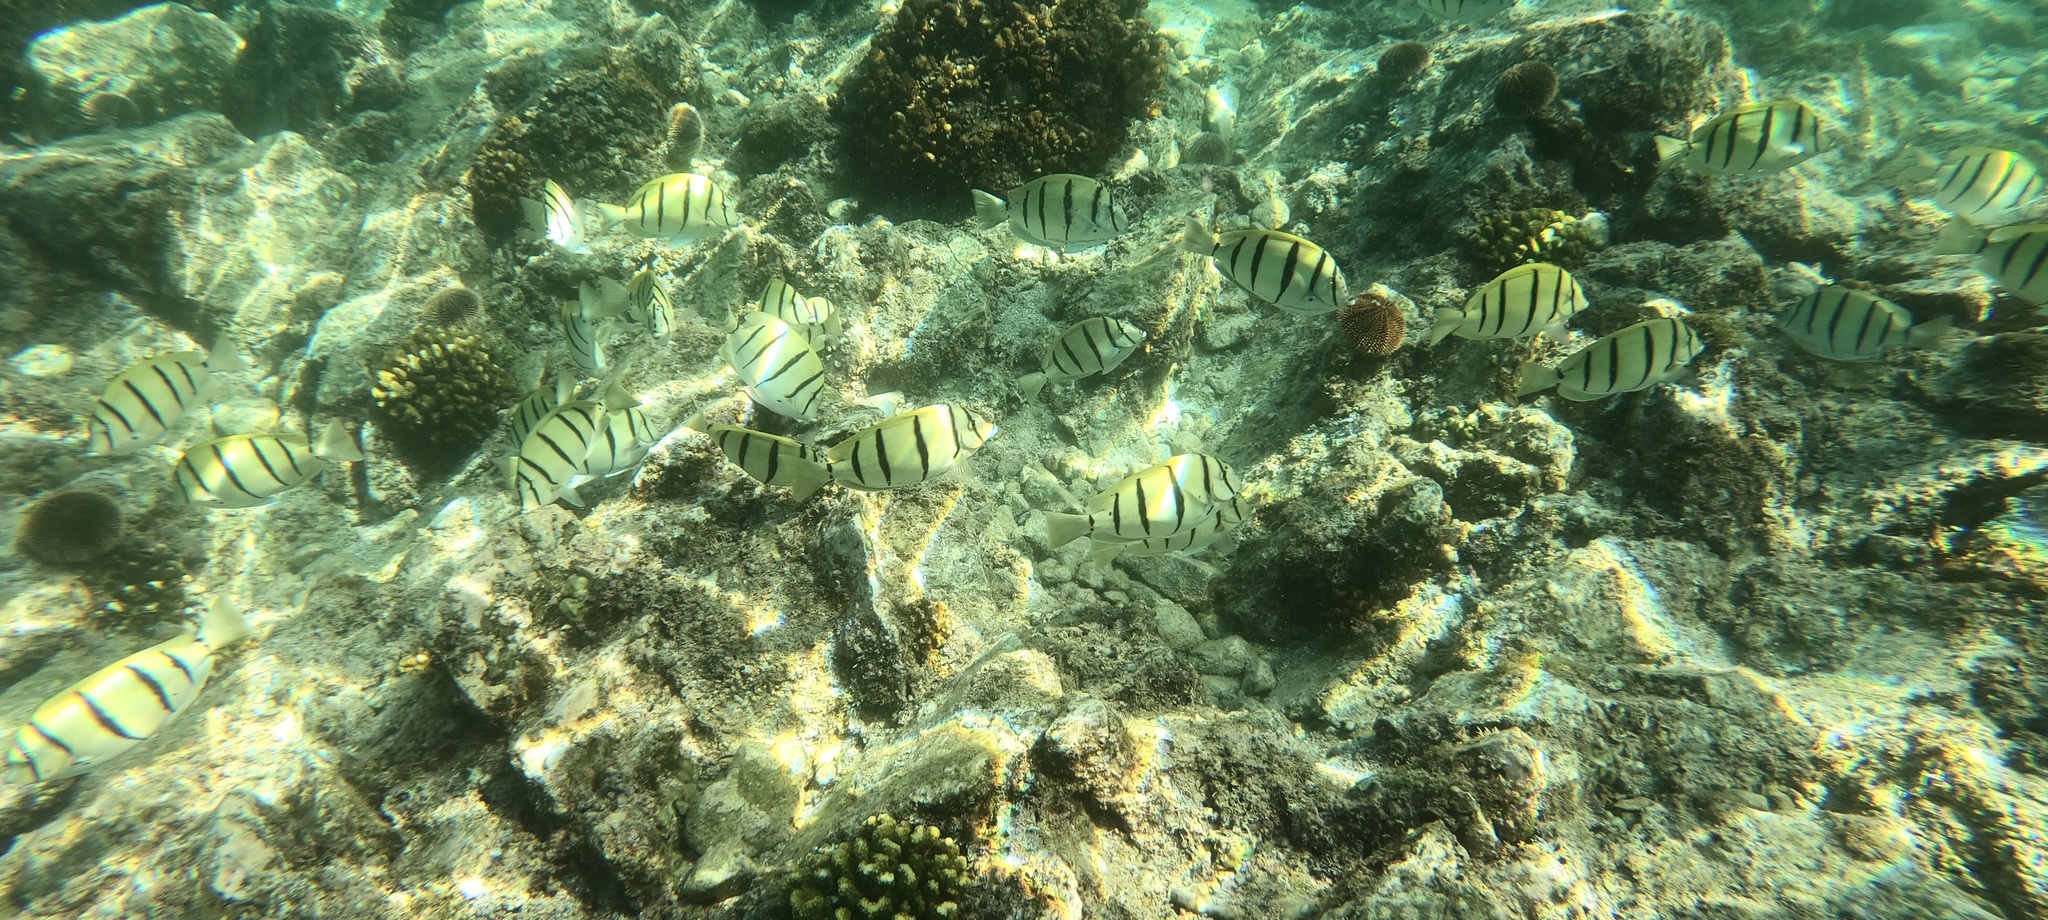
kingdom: Animalia
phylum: Chordata
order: Perciformes
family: Acanthuridae
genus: Acanthurus
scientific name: Acanthurus triostegus
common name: Convict surgeonfish
